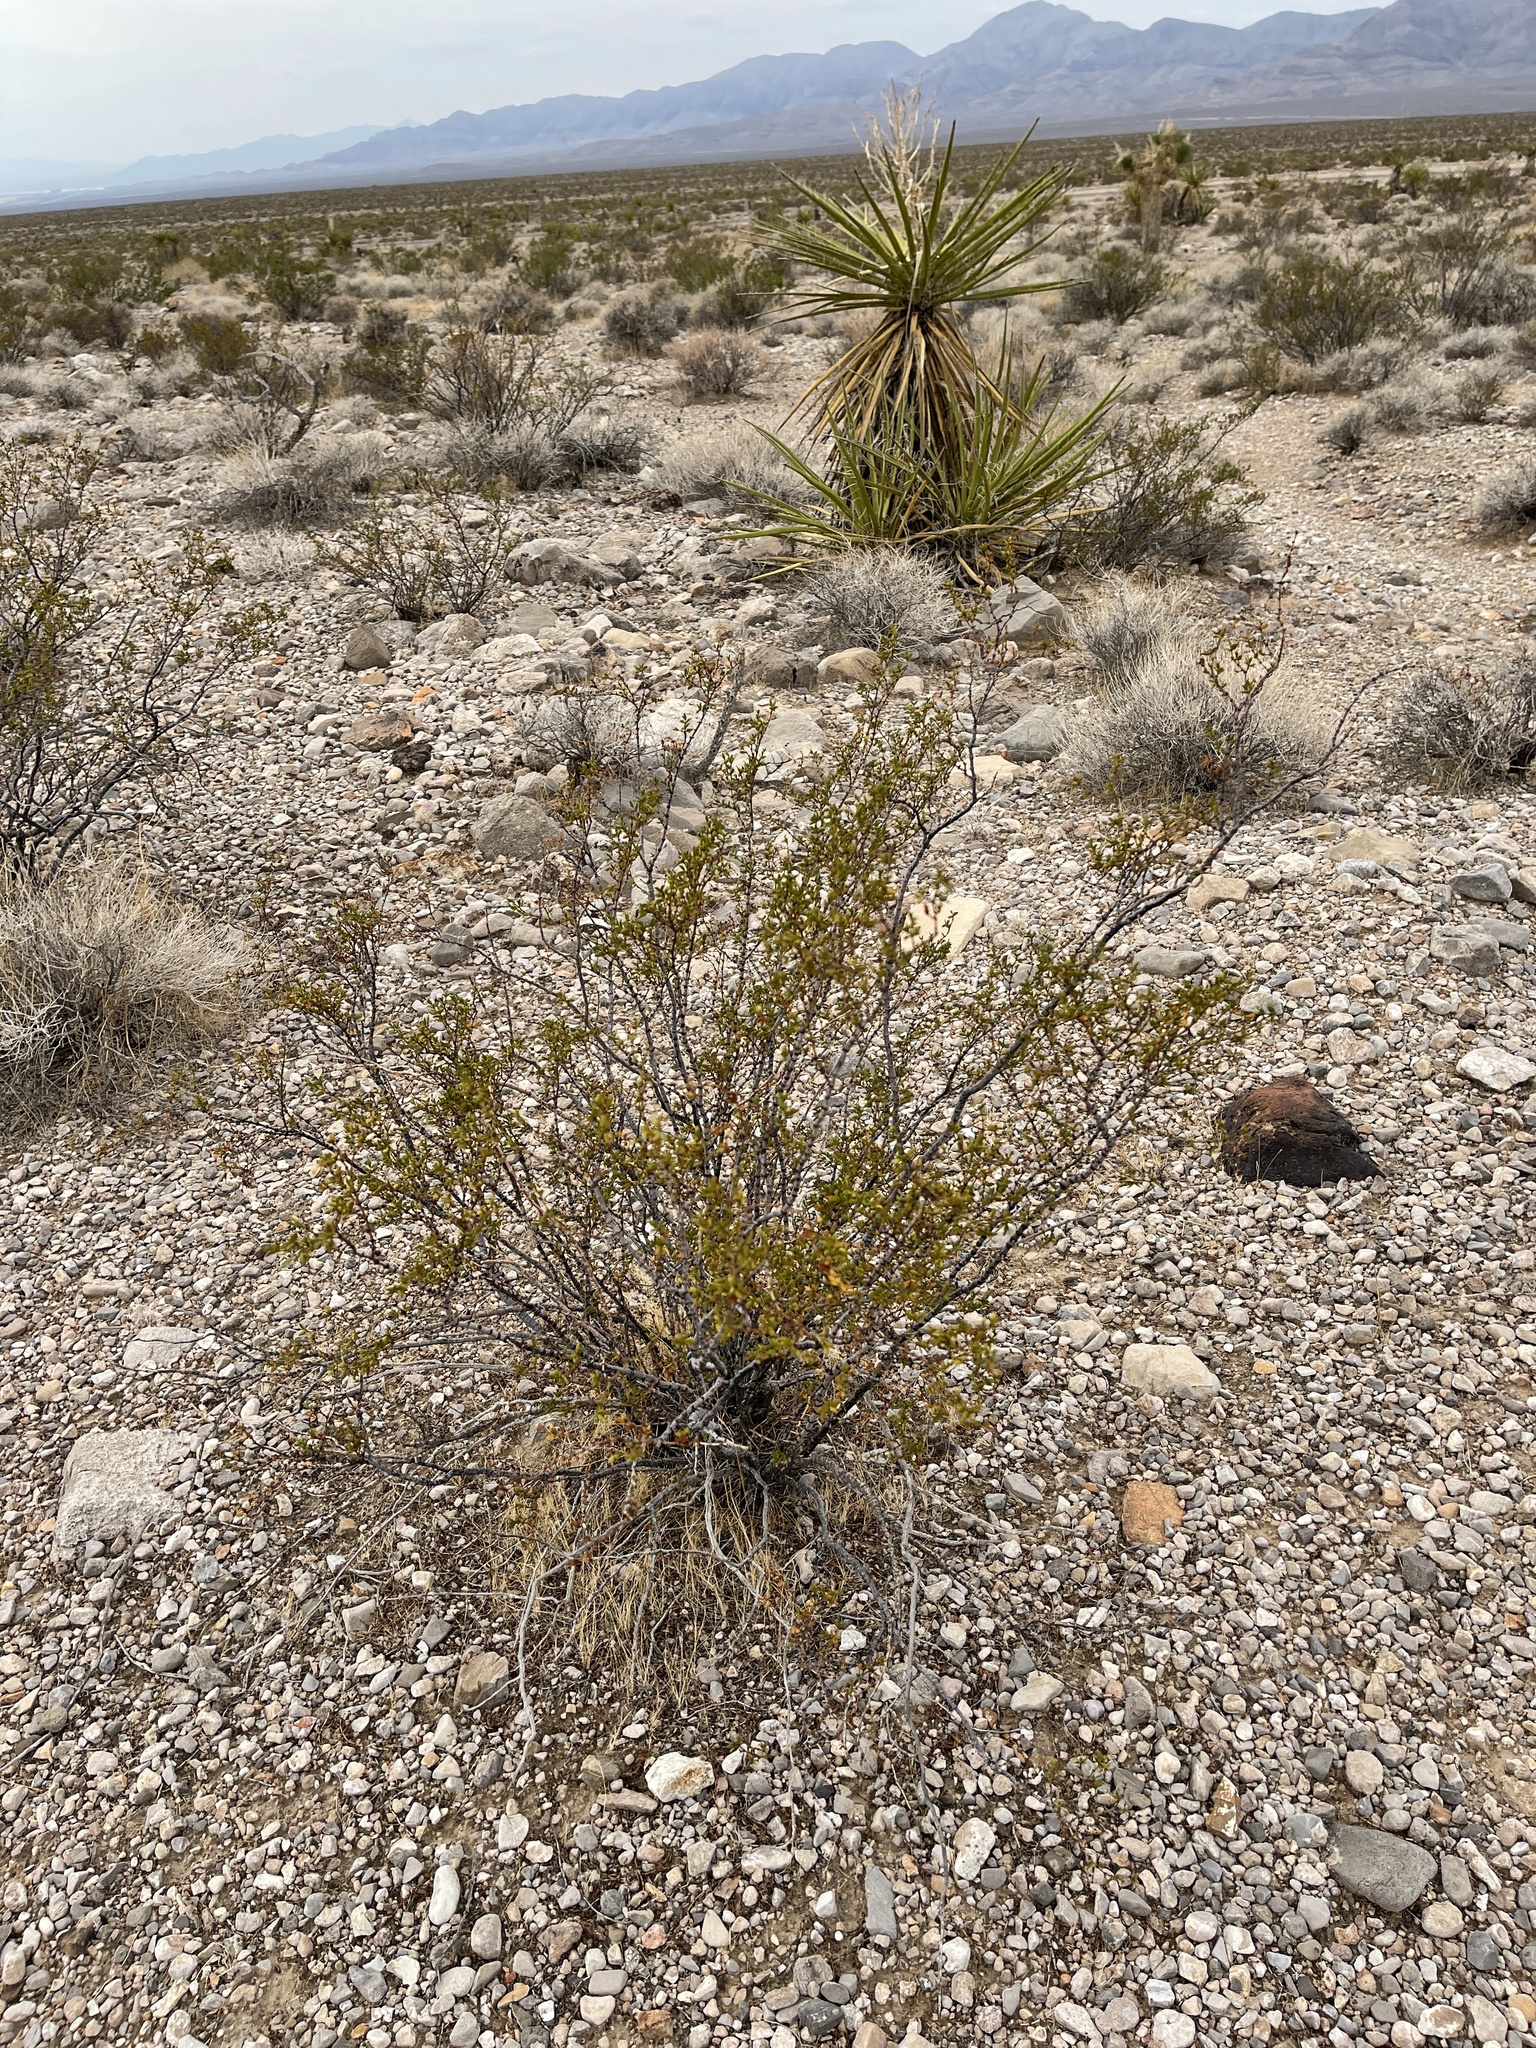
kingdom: Plantae
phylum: Tracheophyta
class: Magnoliopsida
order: Zygophyllales
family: Zygophyllaceae
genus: Larrea
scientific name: Larrea tridentata
